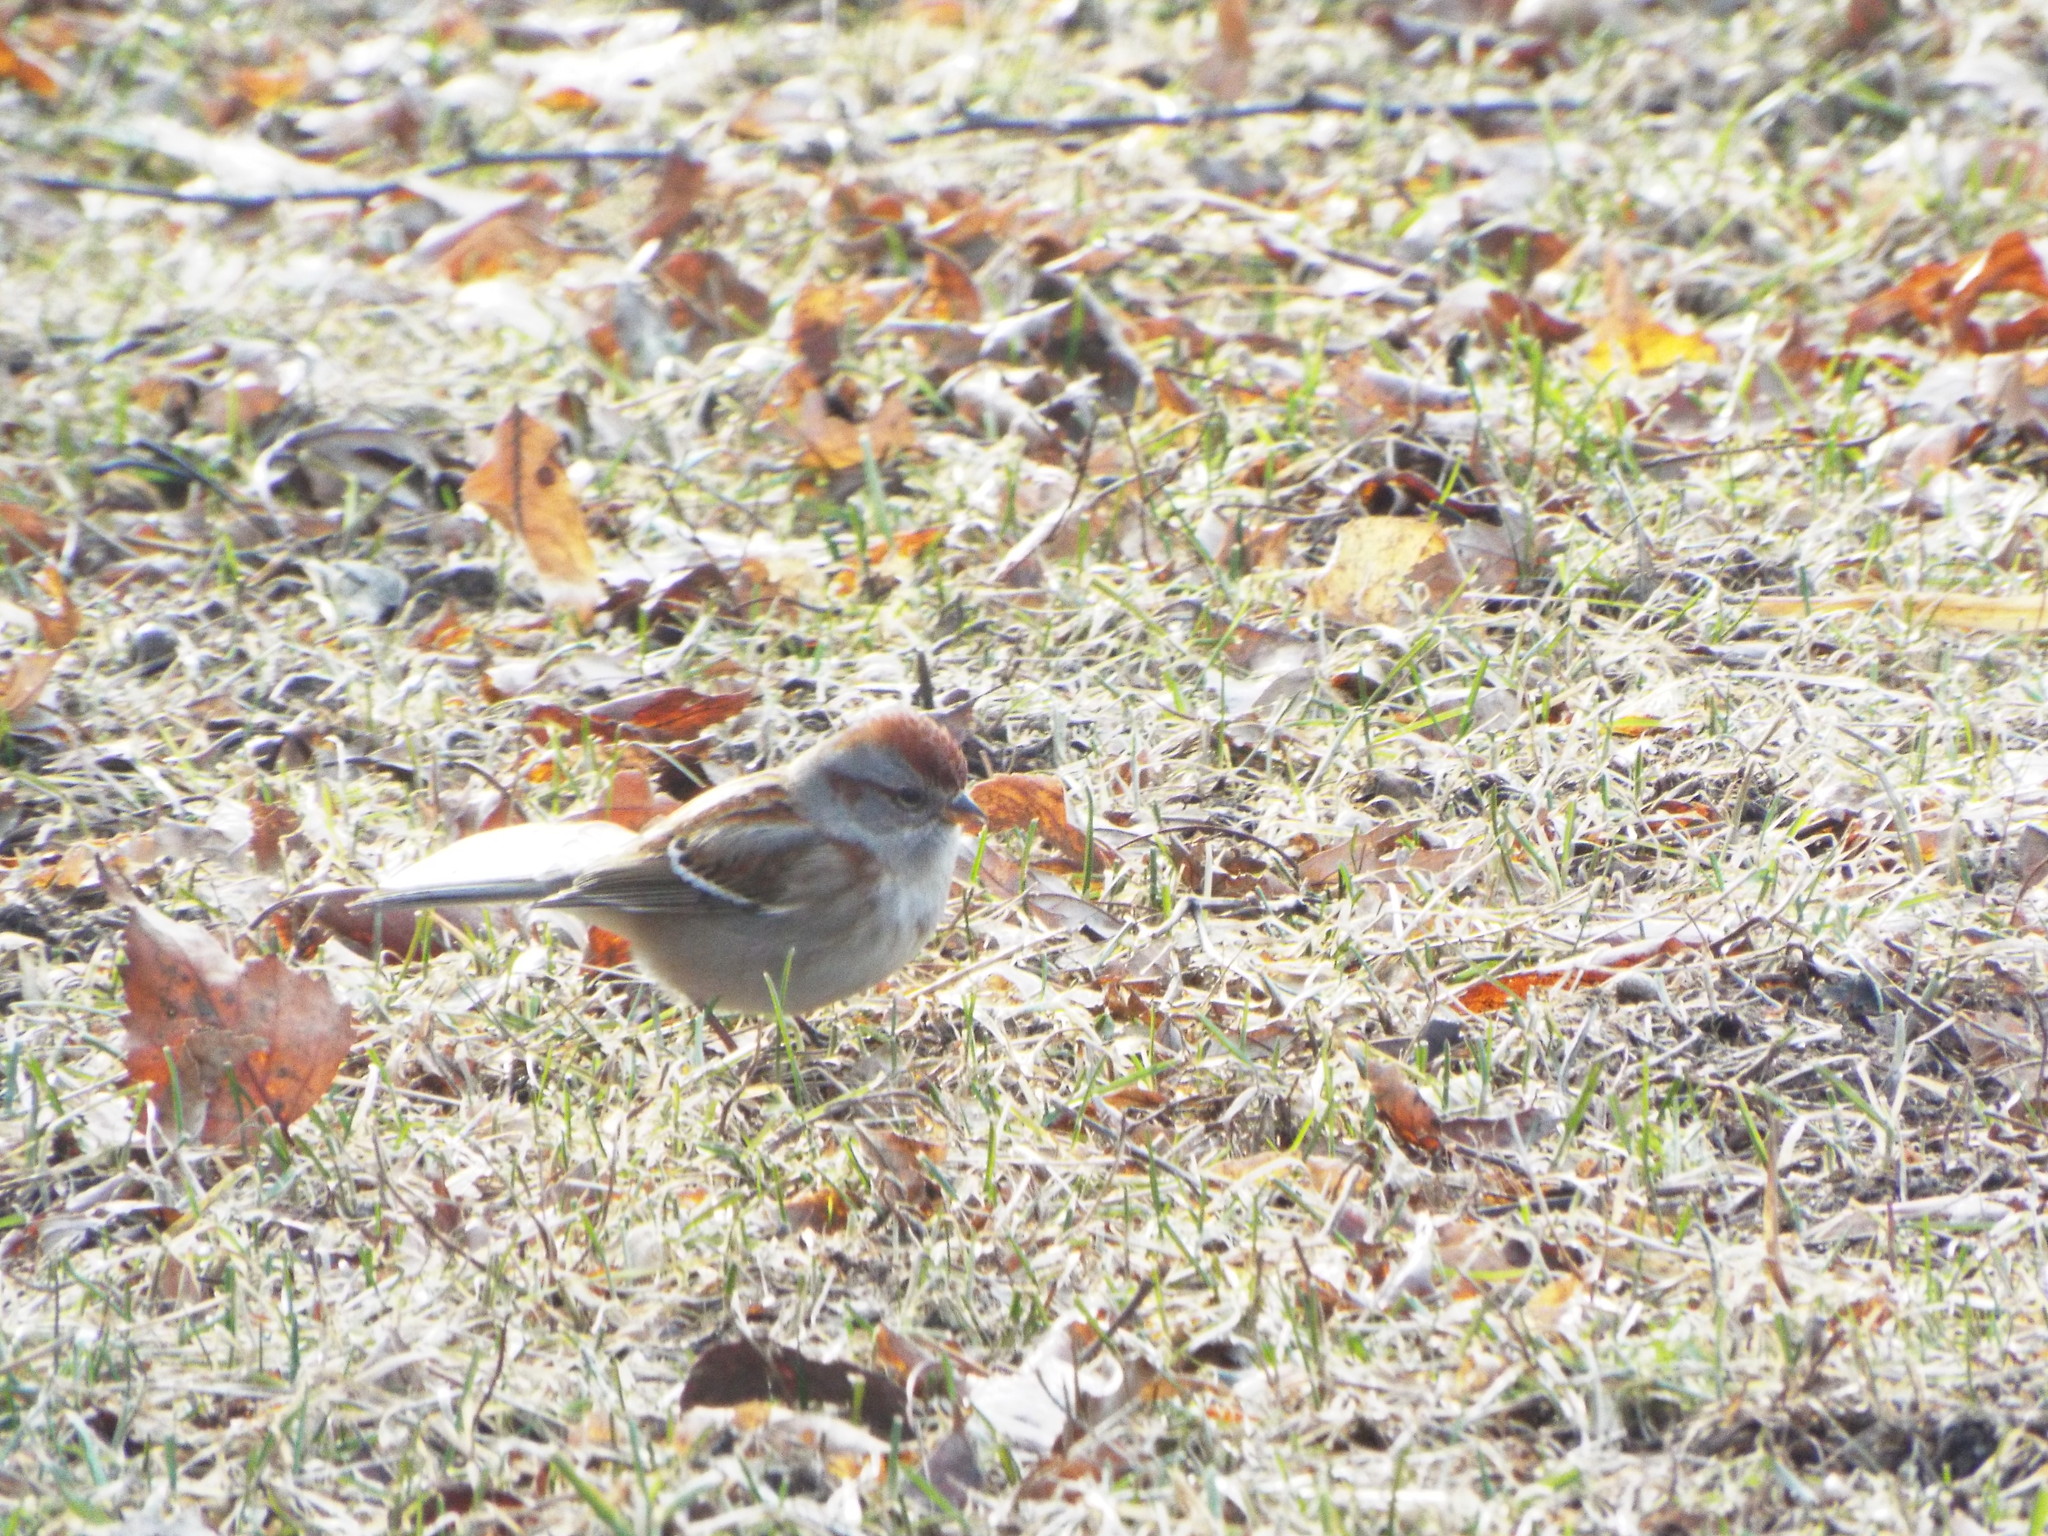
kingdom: Animalia
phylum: Chordata
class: Aves
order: Passeriformes
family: Passerellidae
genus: Spizelloides
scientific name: Spizelloides arborea
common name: American tree sparrow
